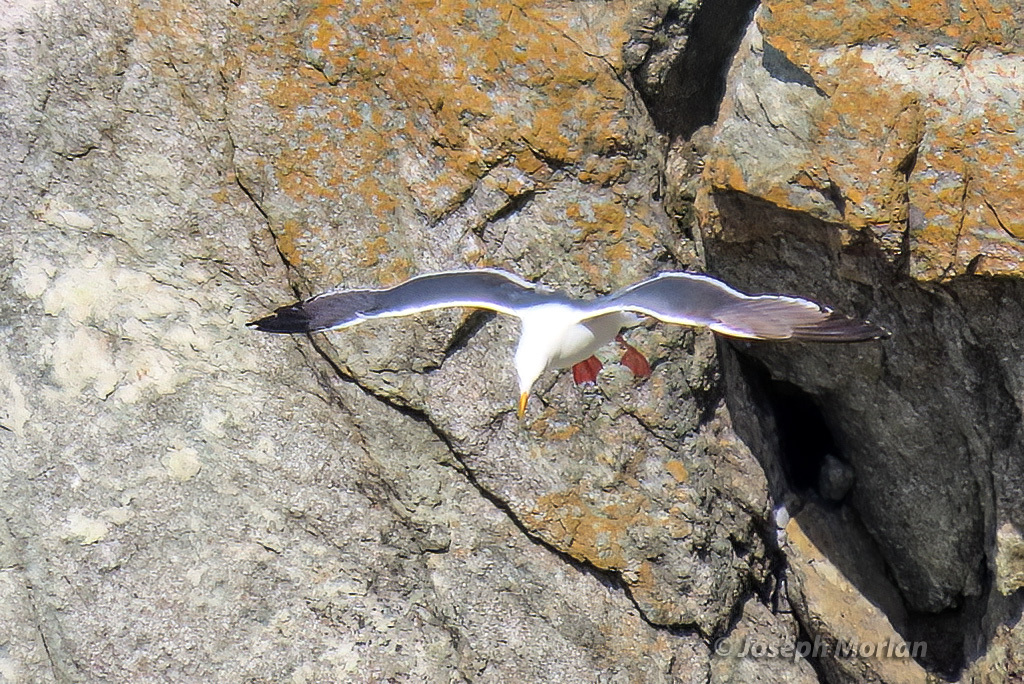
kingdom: Animalia
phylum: Chordata
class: Aves
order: Charadriiformes
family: Laridae
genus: Larus
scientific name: Larus occidentalis
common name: Western gull
